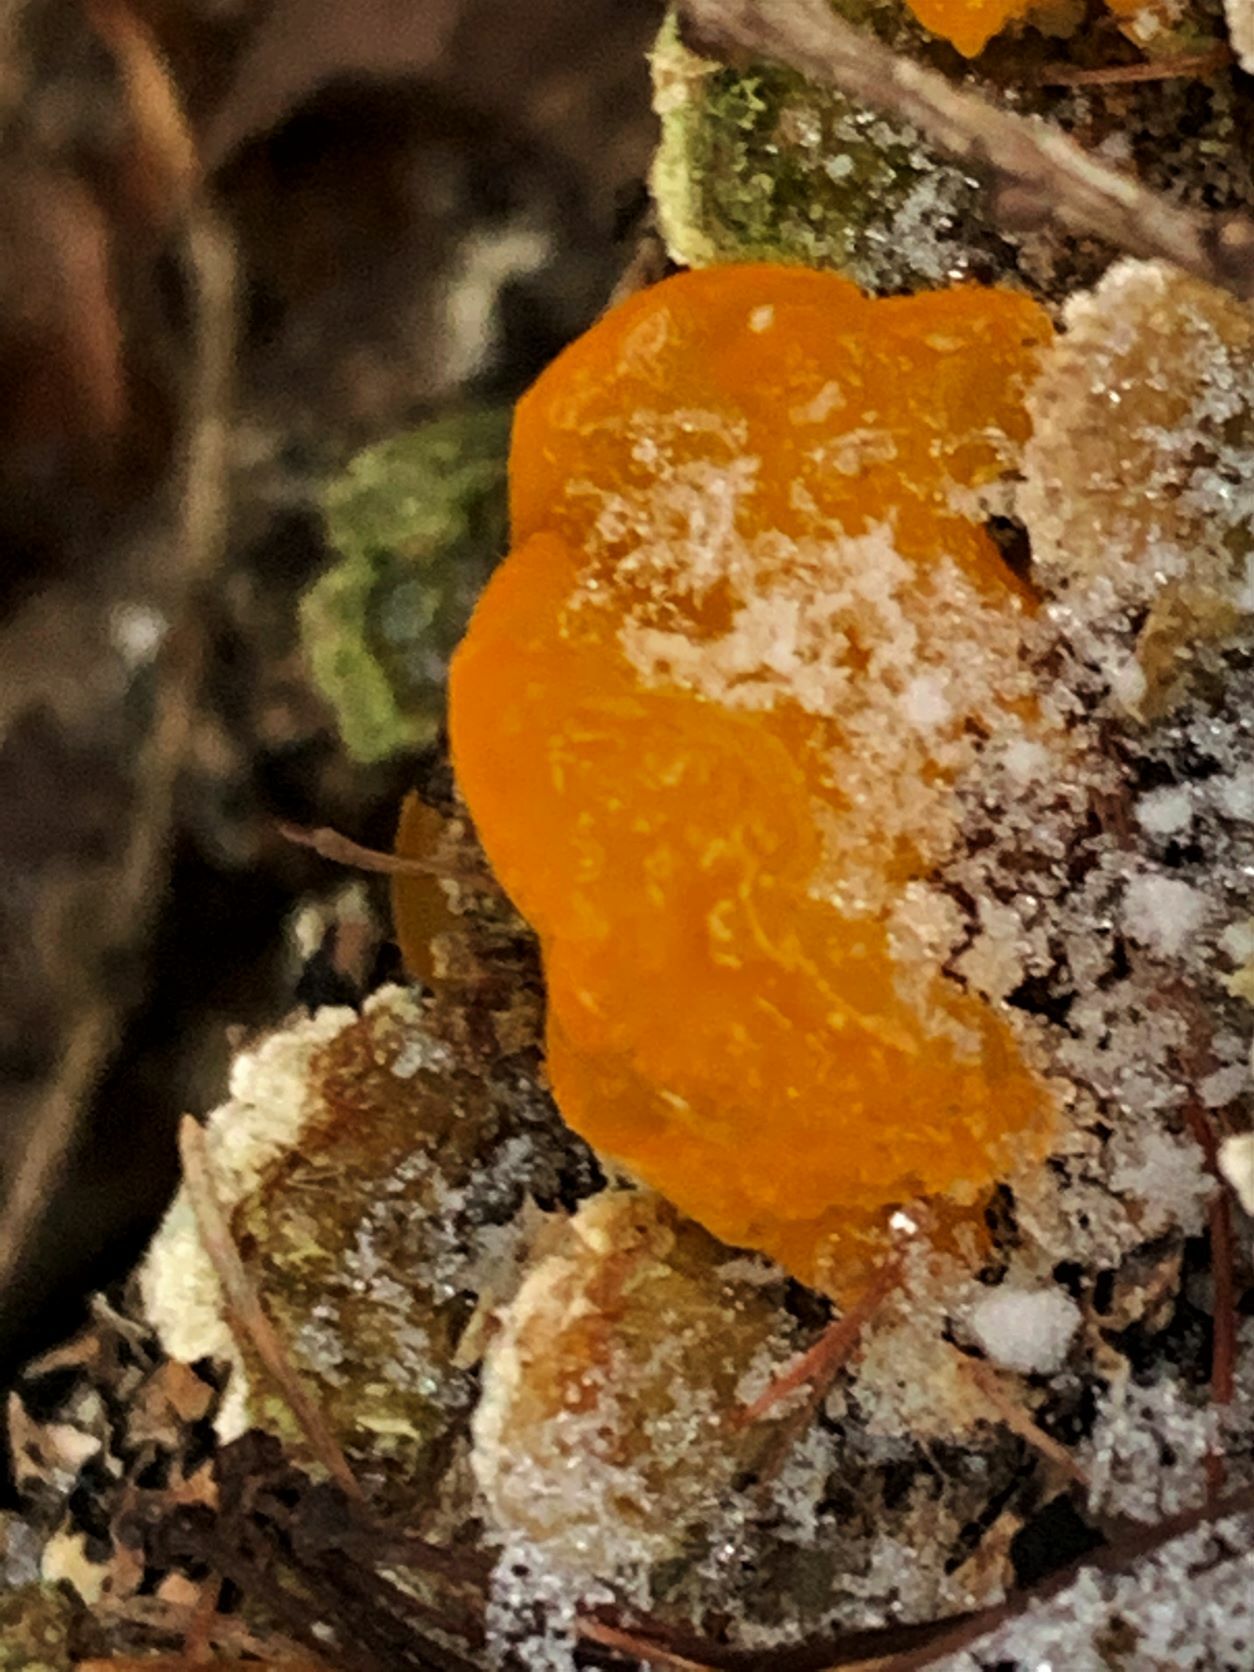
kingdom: Fungi
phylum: Basidiomycota
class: Dacrymycetes
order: Dacrymycetales
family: Dacrymycetaceae
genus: Dacrymyces
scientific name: Dacrymyces chrysospermus
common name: Orange jelly spot
